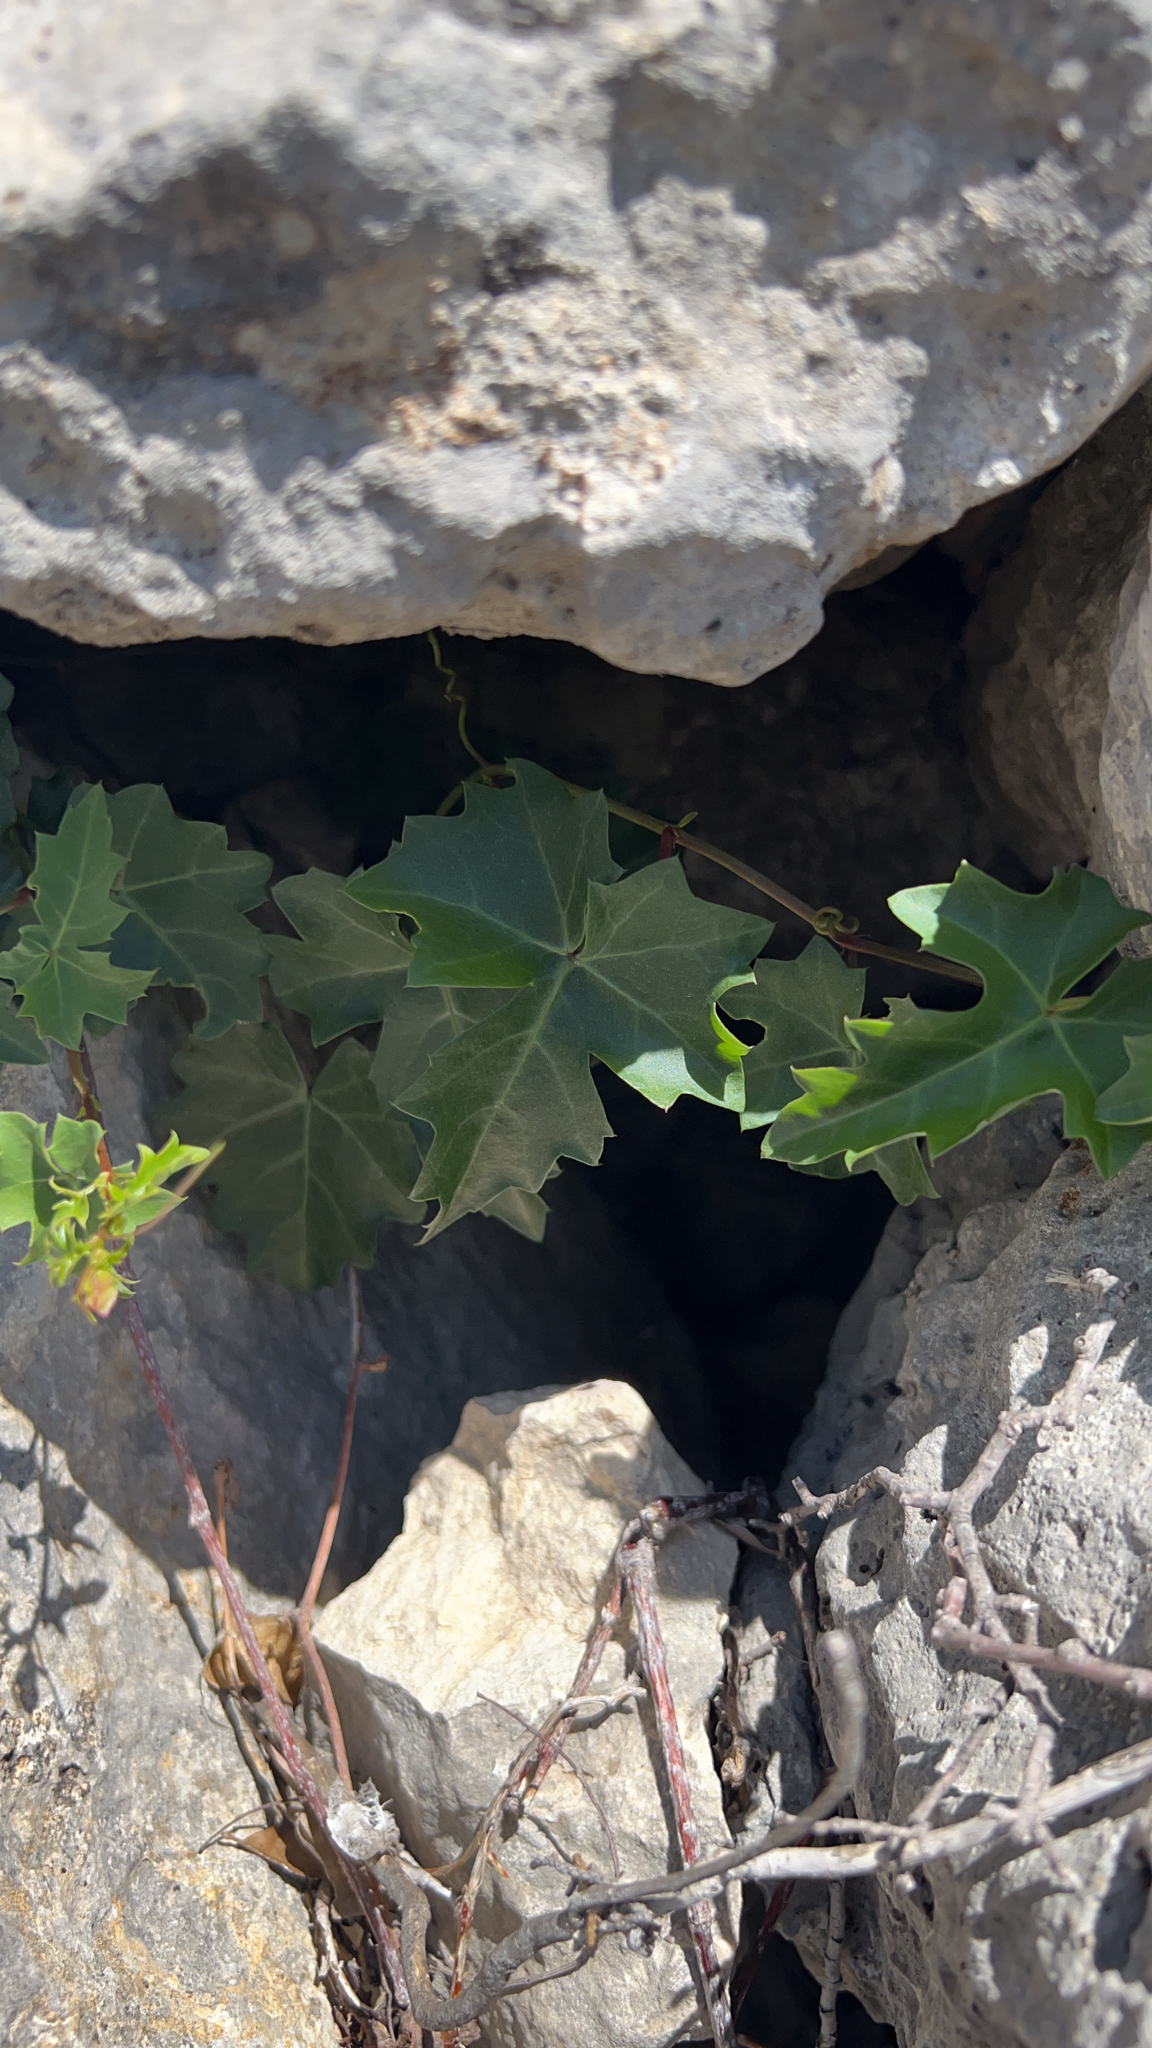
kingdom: Plantae
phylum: Tracheophyta
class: Magnoliopsida
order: Vitales
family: Vitaceae
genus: Cissus
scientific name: Cissus trifoliata
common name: Vine-sorrel
